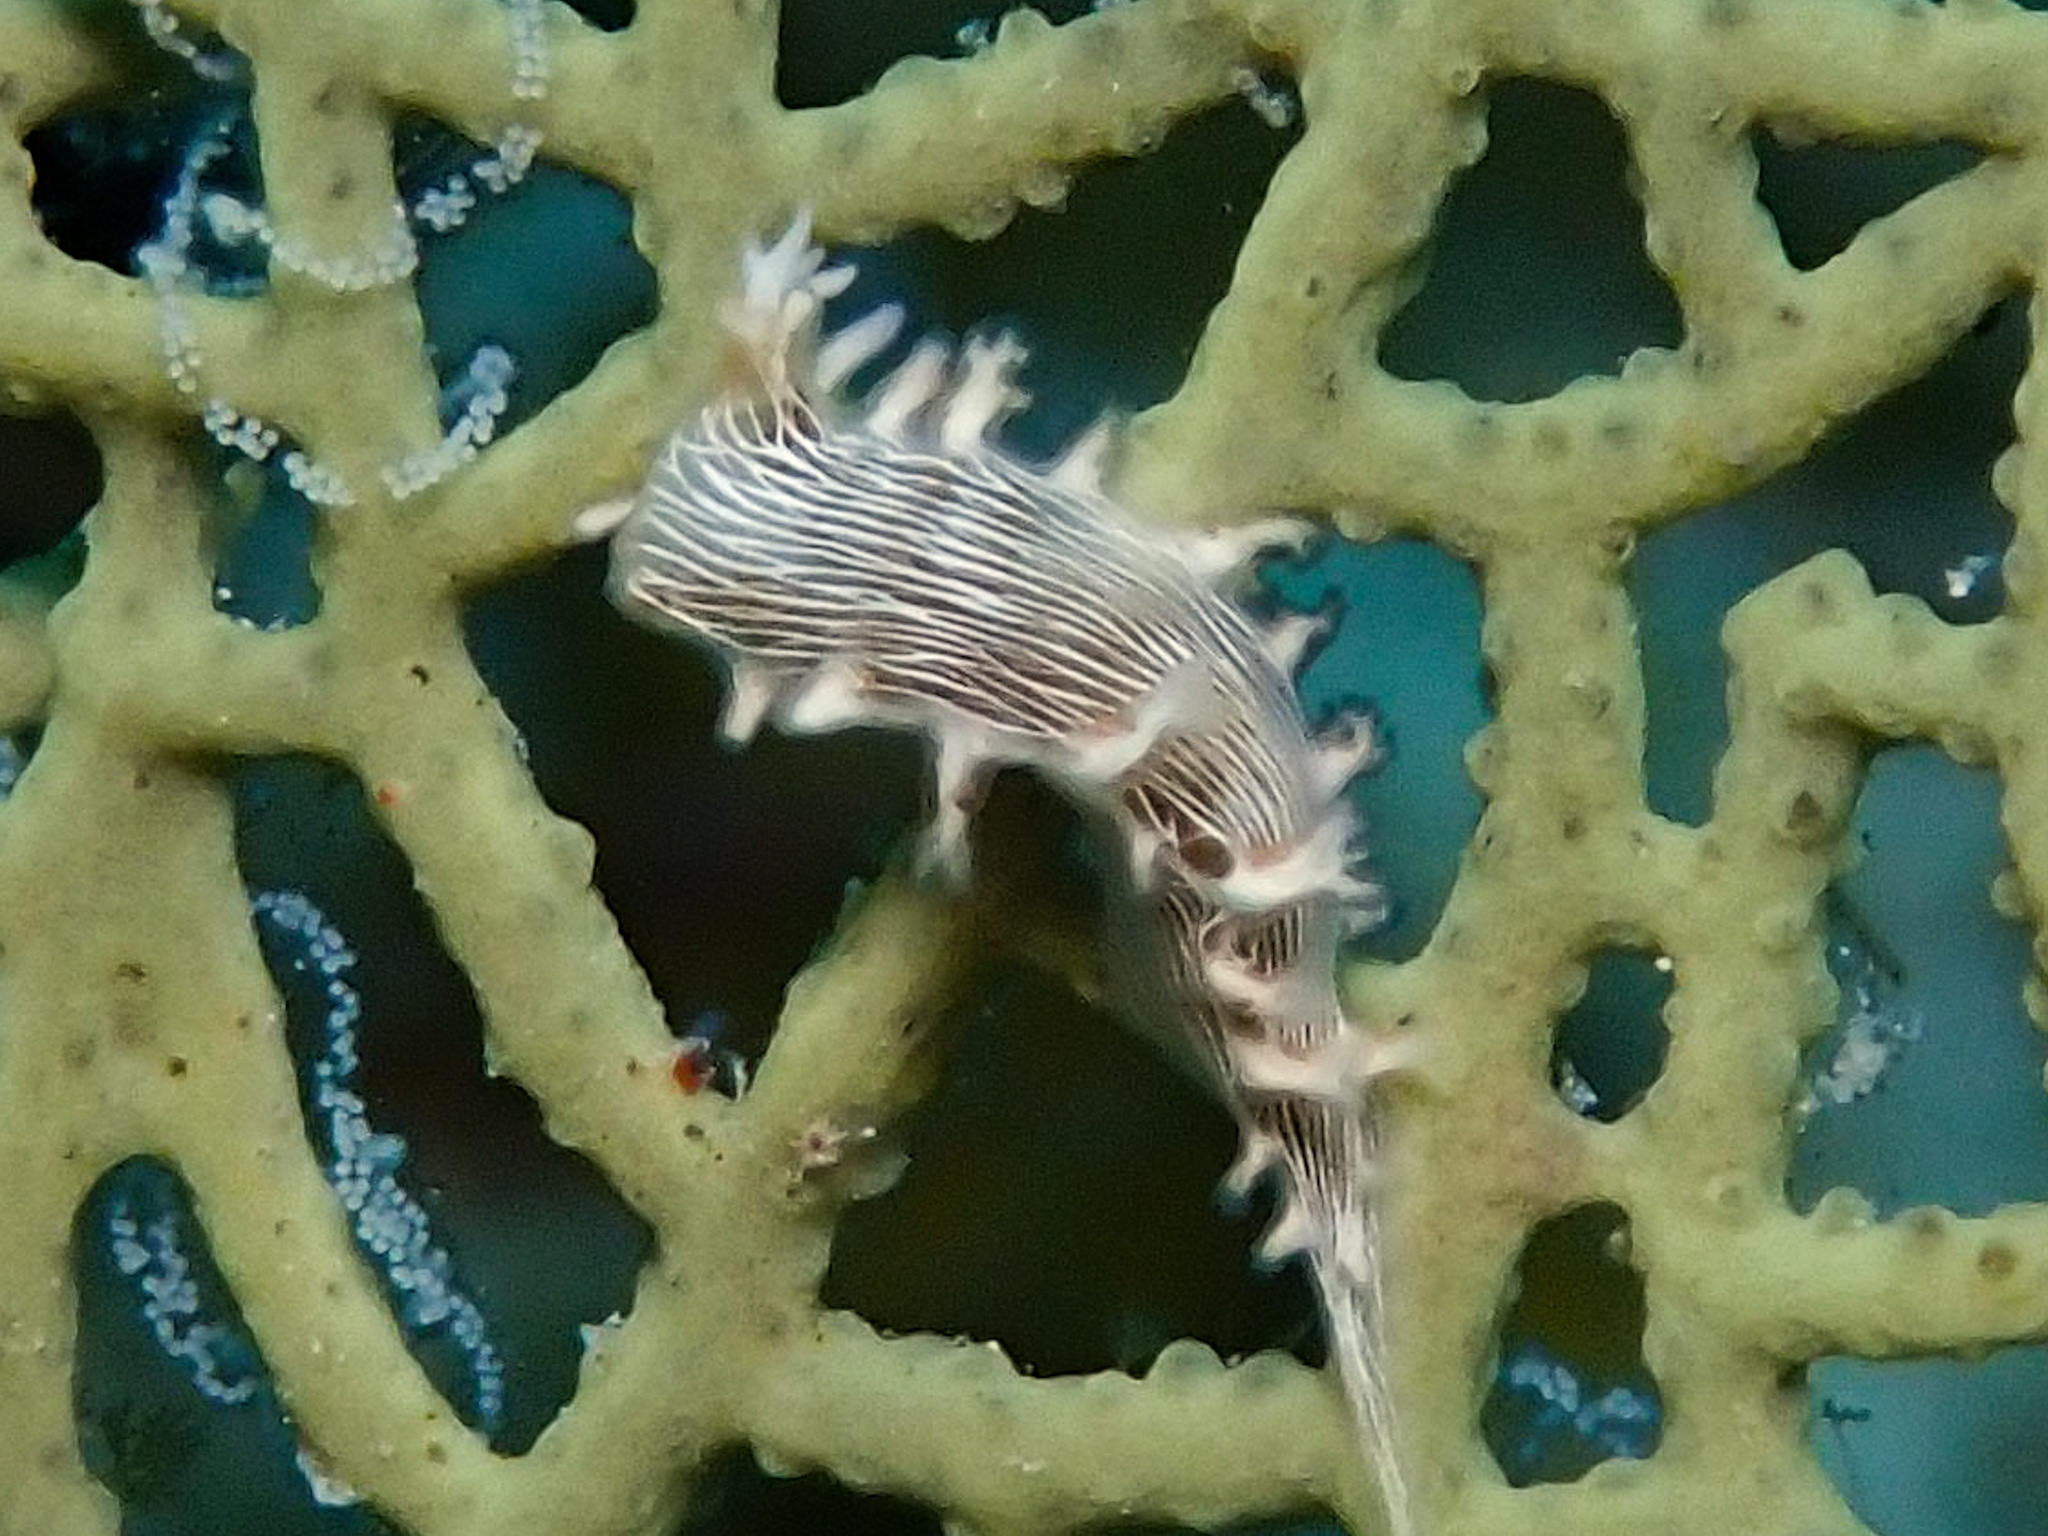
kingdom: Animalia
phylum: Mollusca
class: Gastropoda
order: Nudibranchia
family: Tritoniidae
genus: Tritonicula
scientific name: Tritonicula hamnerorum
